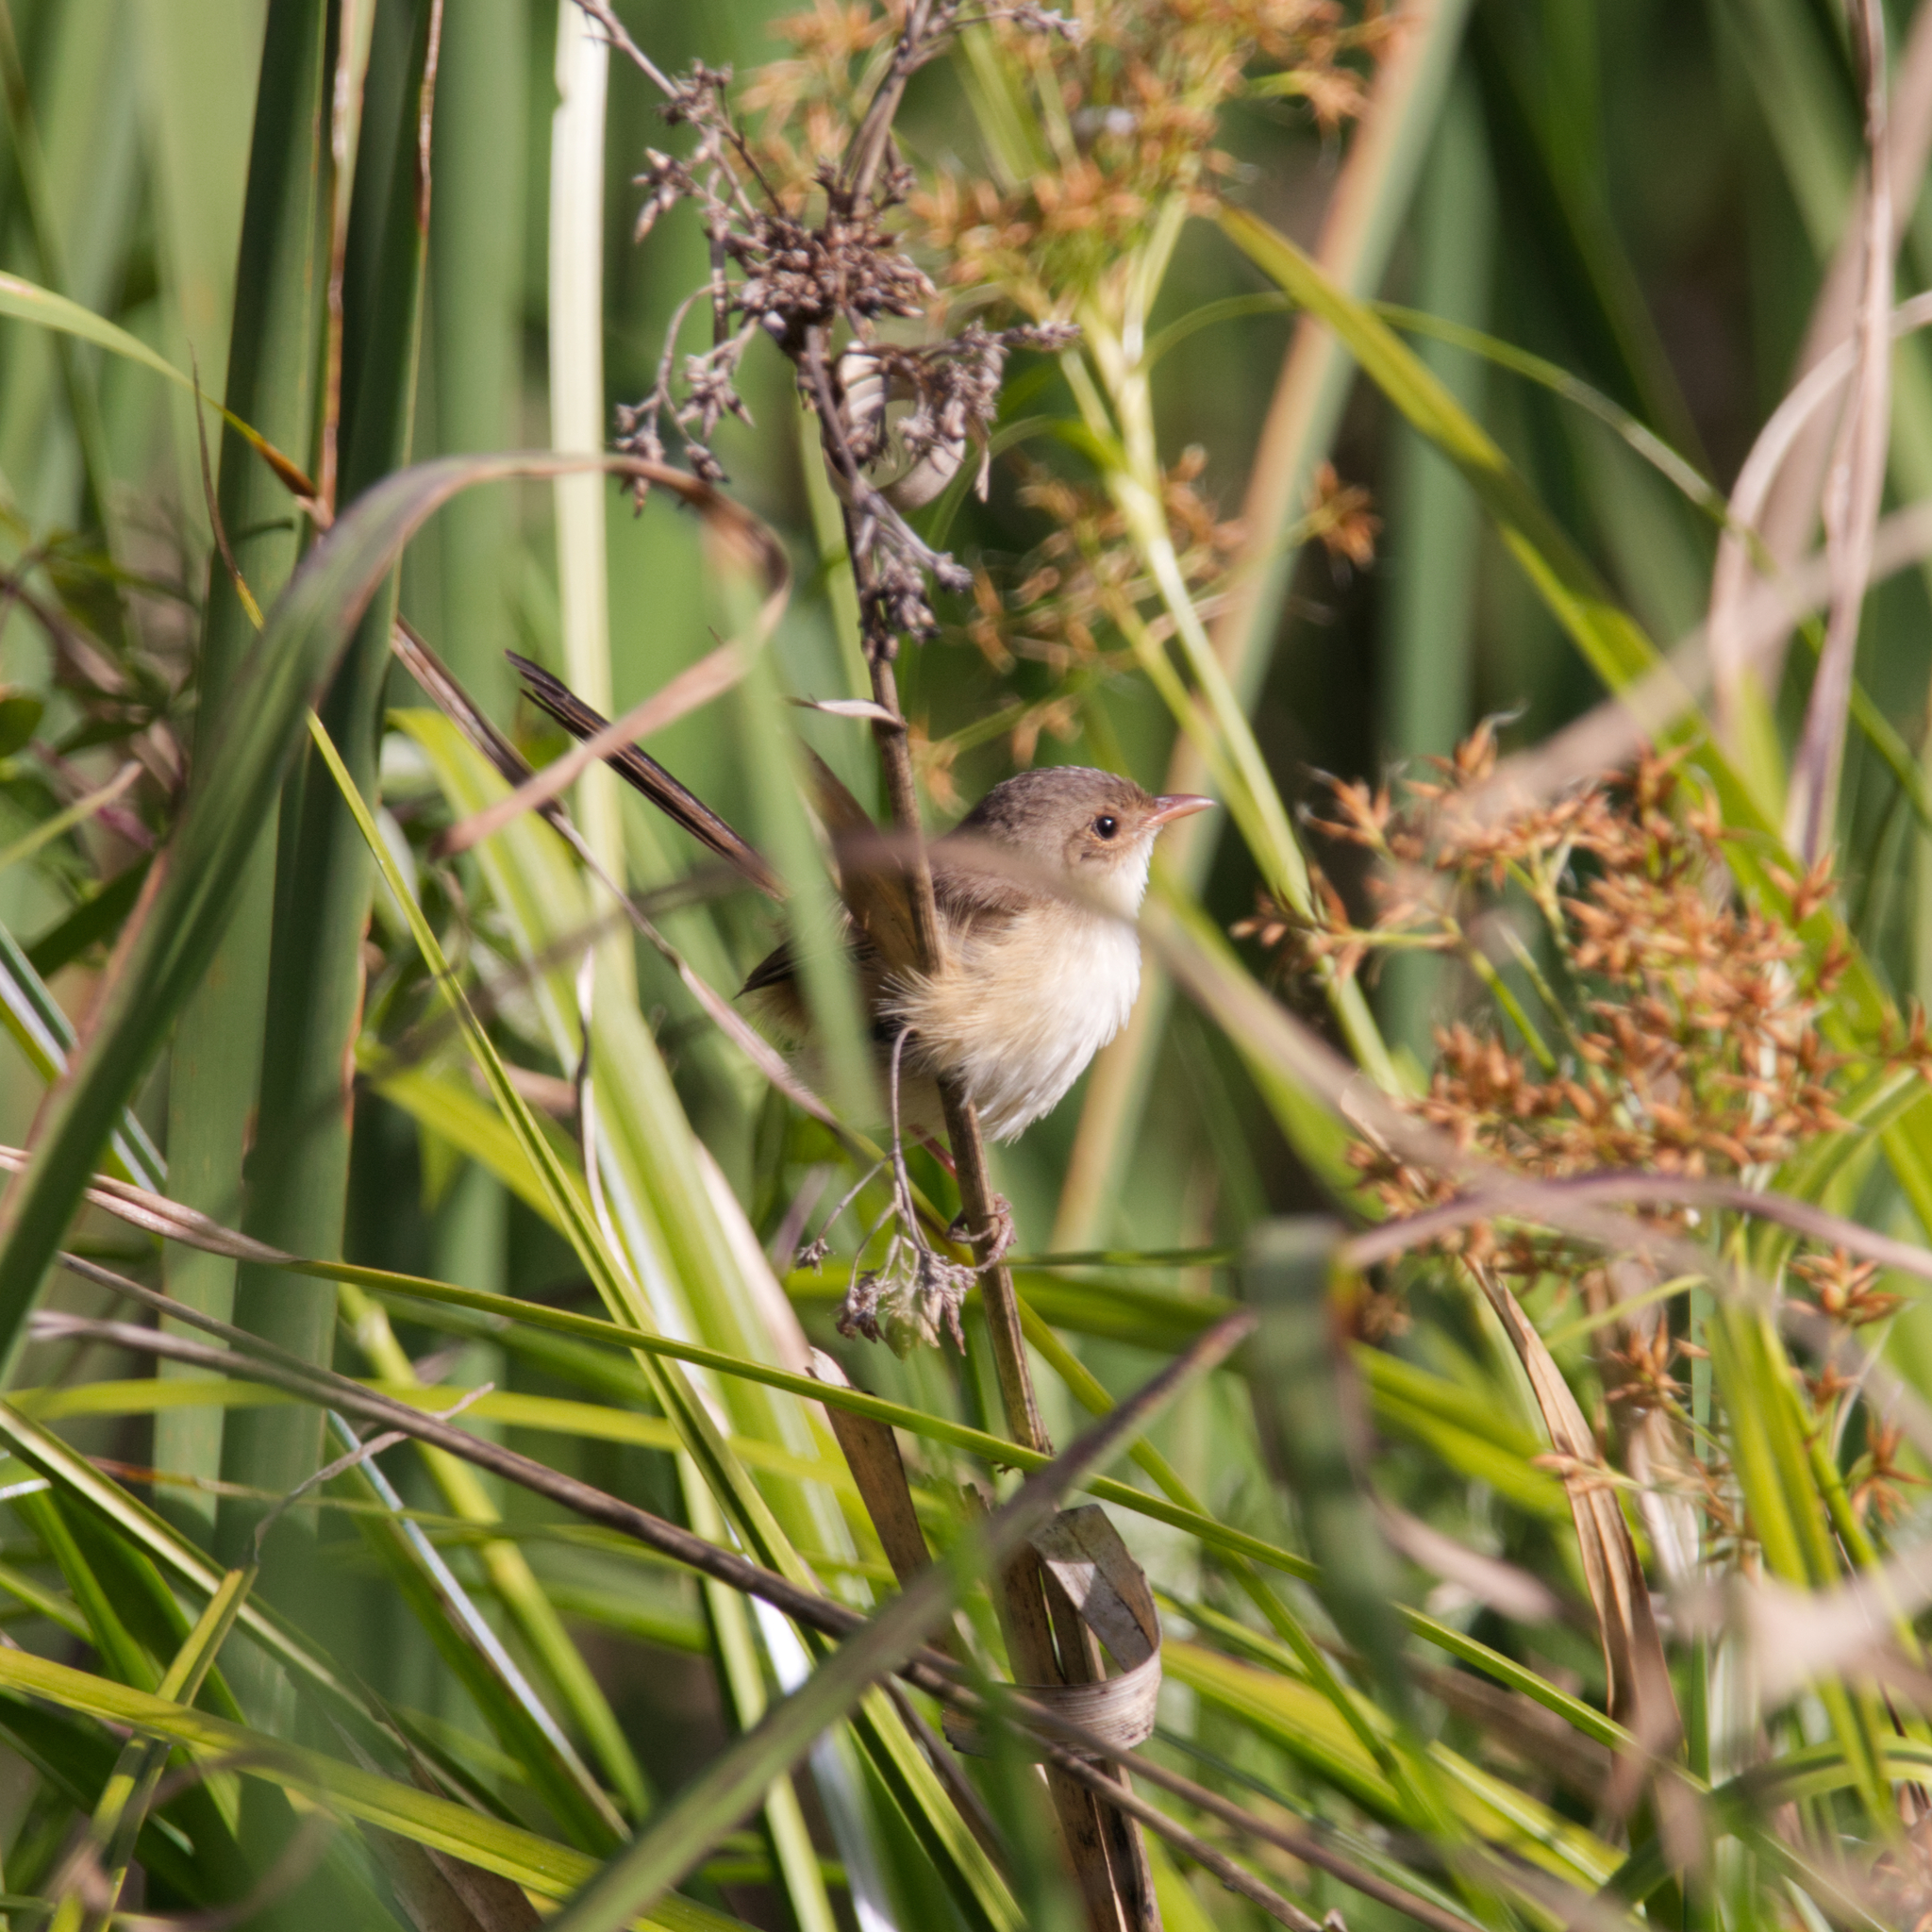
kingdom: Animalia
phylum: Chordata
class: Aves
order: Passeriformes
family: Maluridae
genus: Malurus
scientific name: Malurus melanocephalus
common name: Red-backed fairywren
